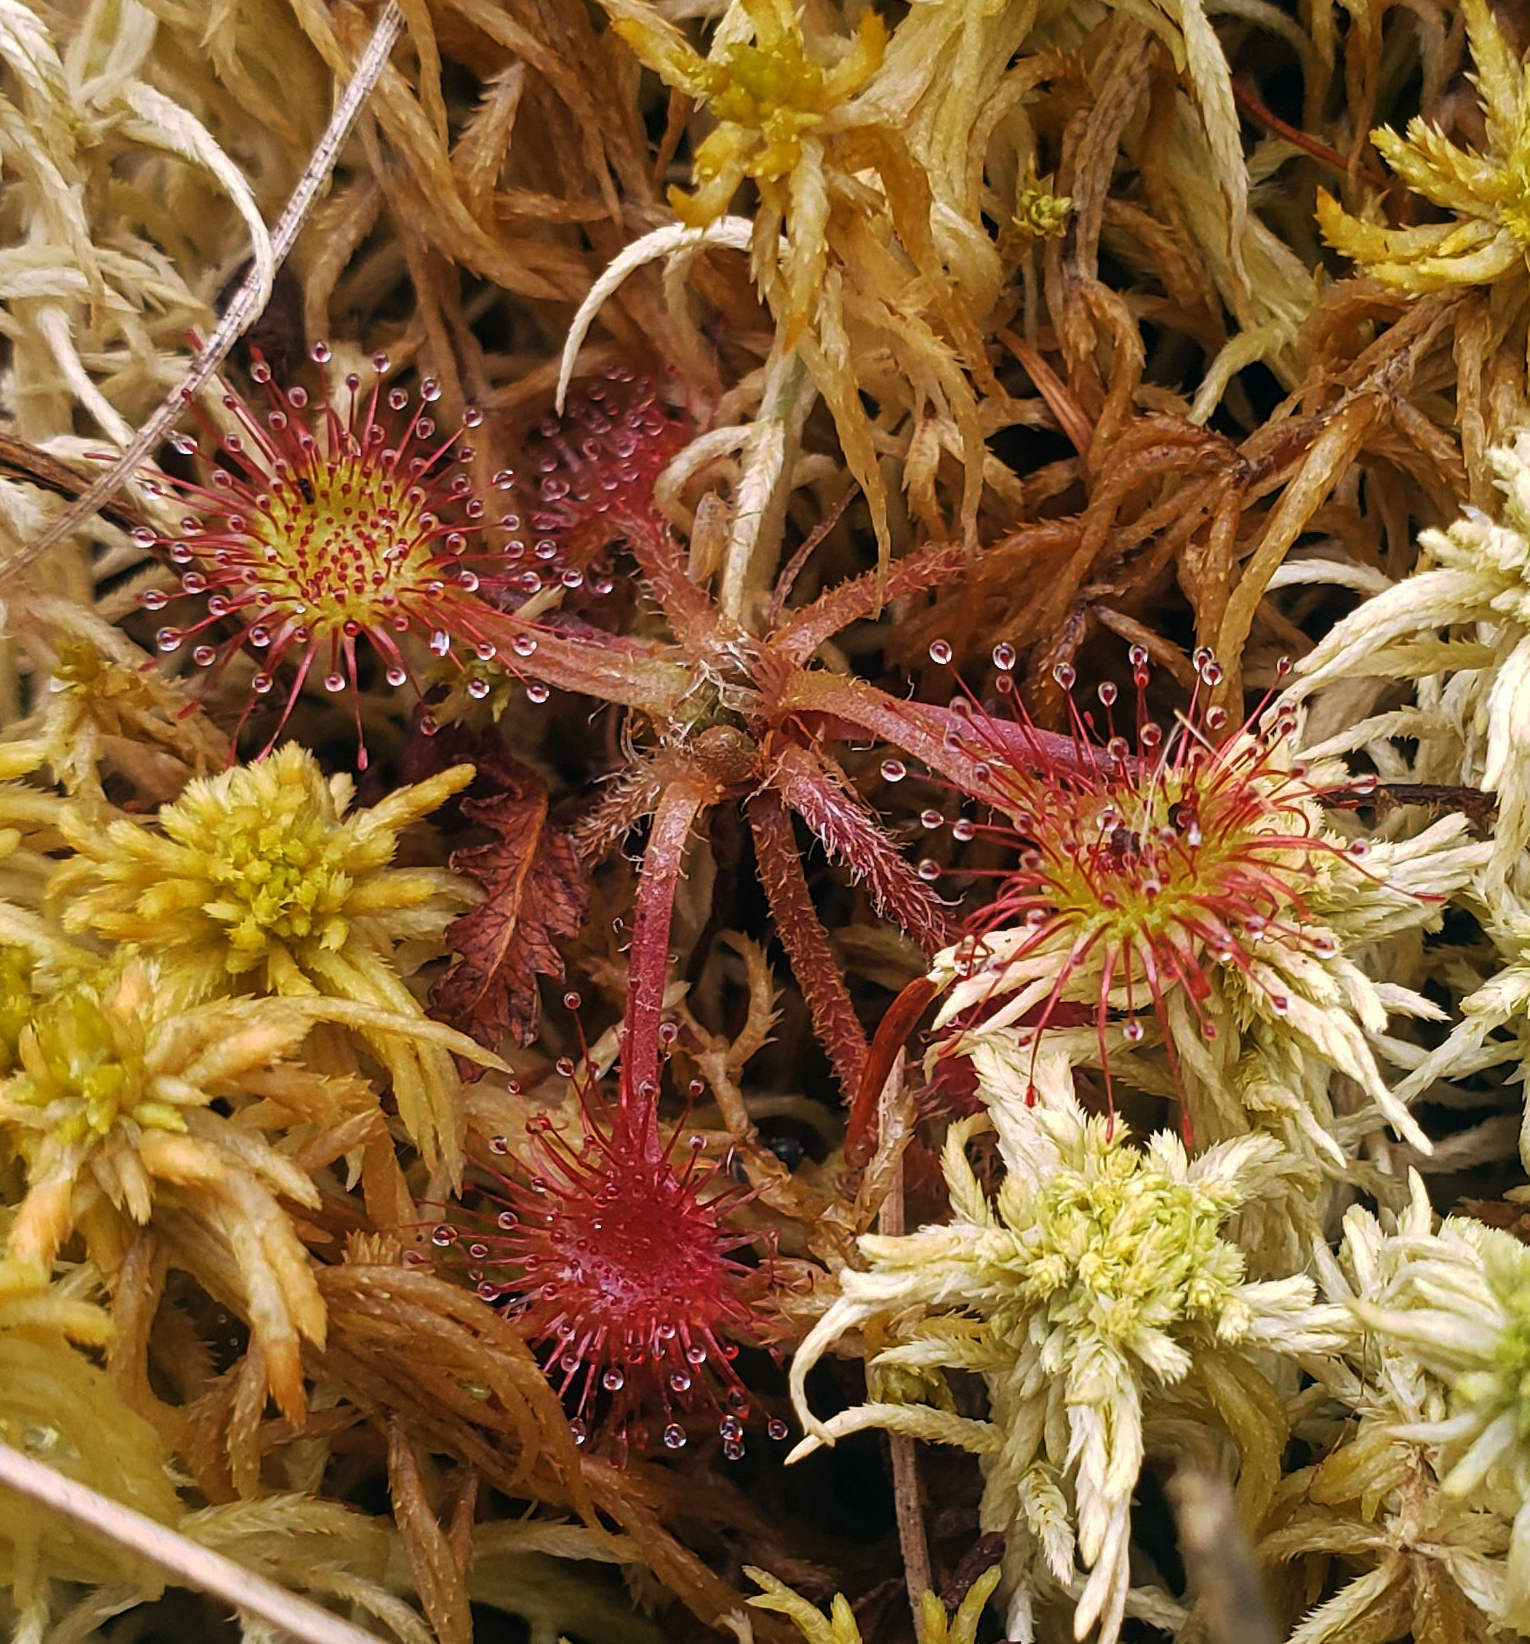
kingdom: Plantae
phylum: Tracheophyta
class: Magnoliopsida
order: Caryophyllales
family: Droseraceae
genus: Drosera
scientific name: Drosera rotundifolia
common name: Round-leaved sundew
